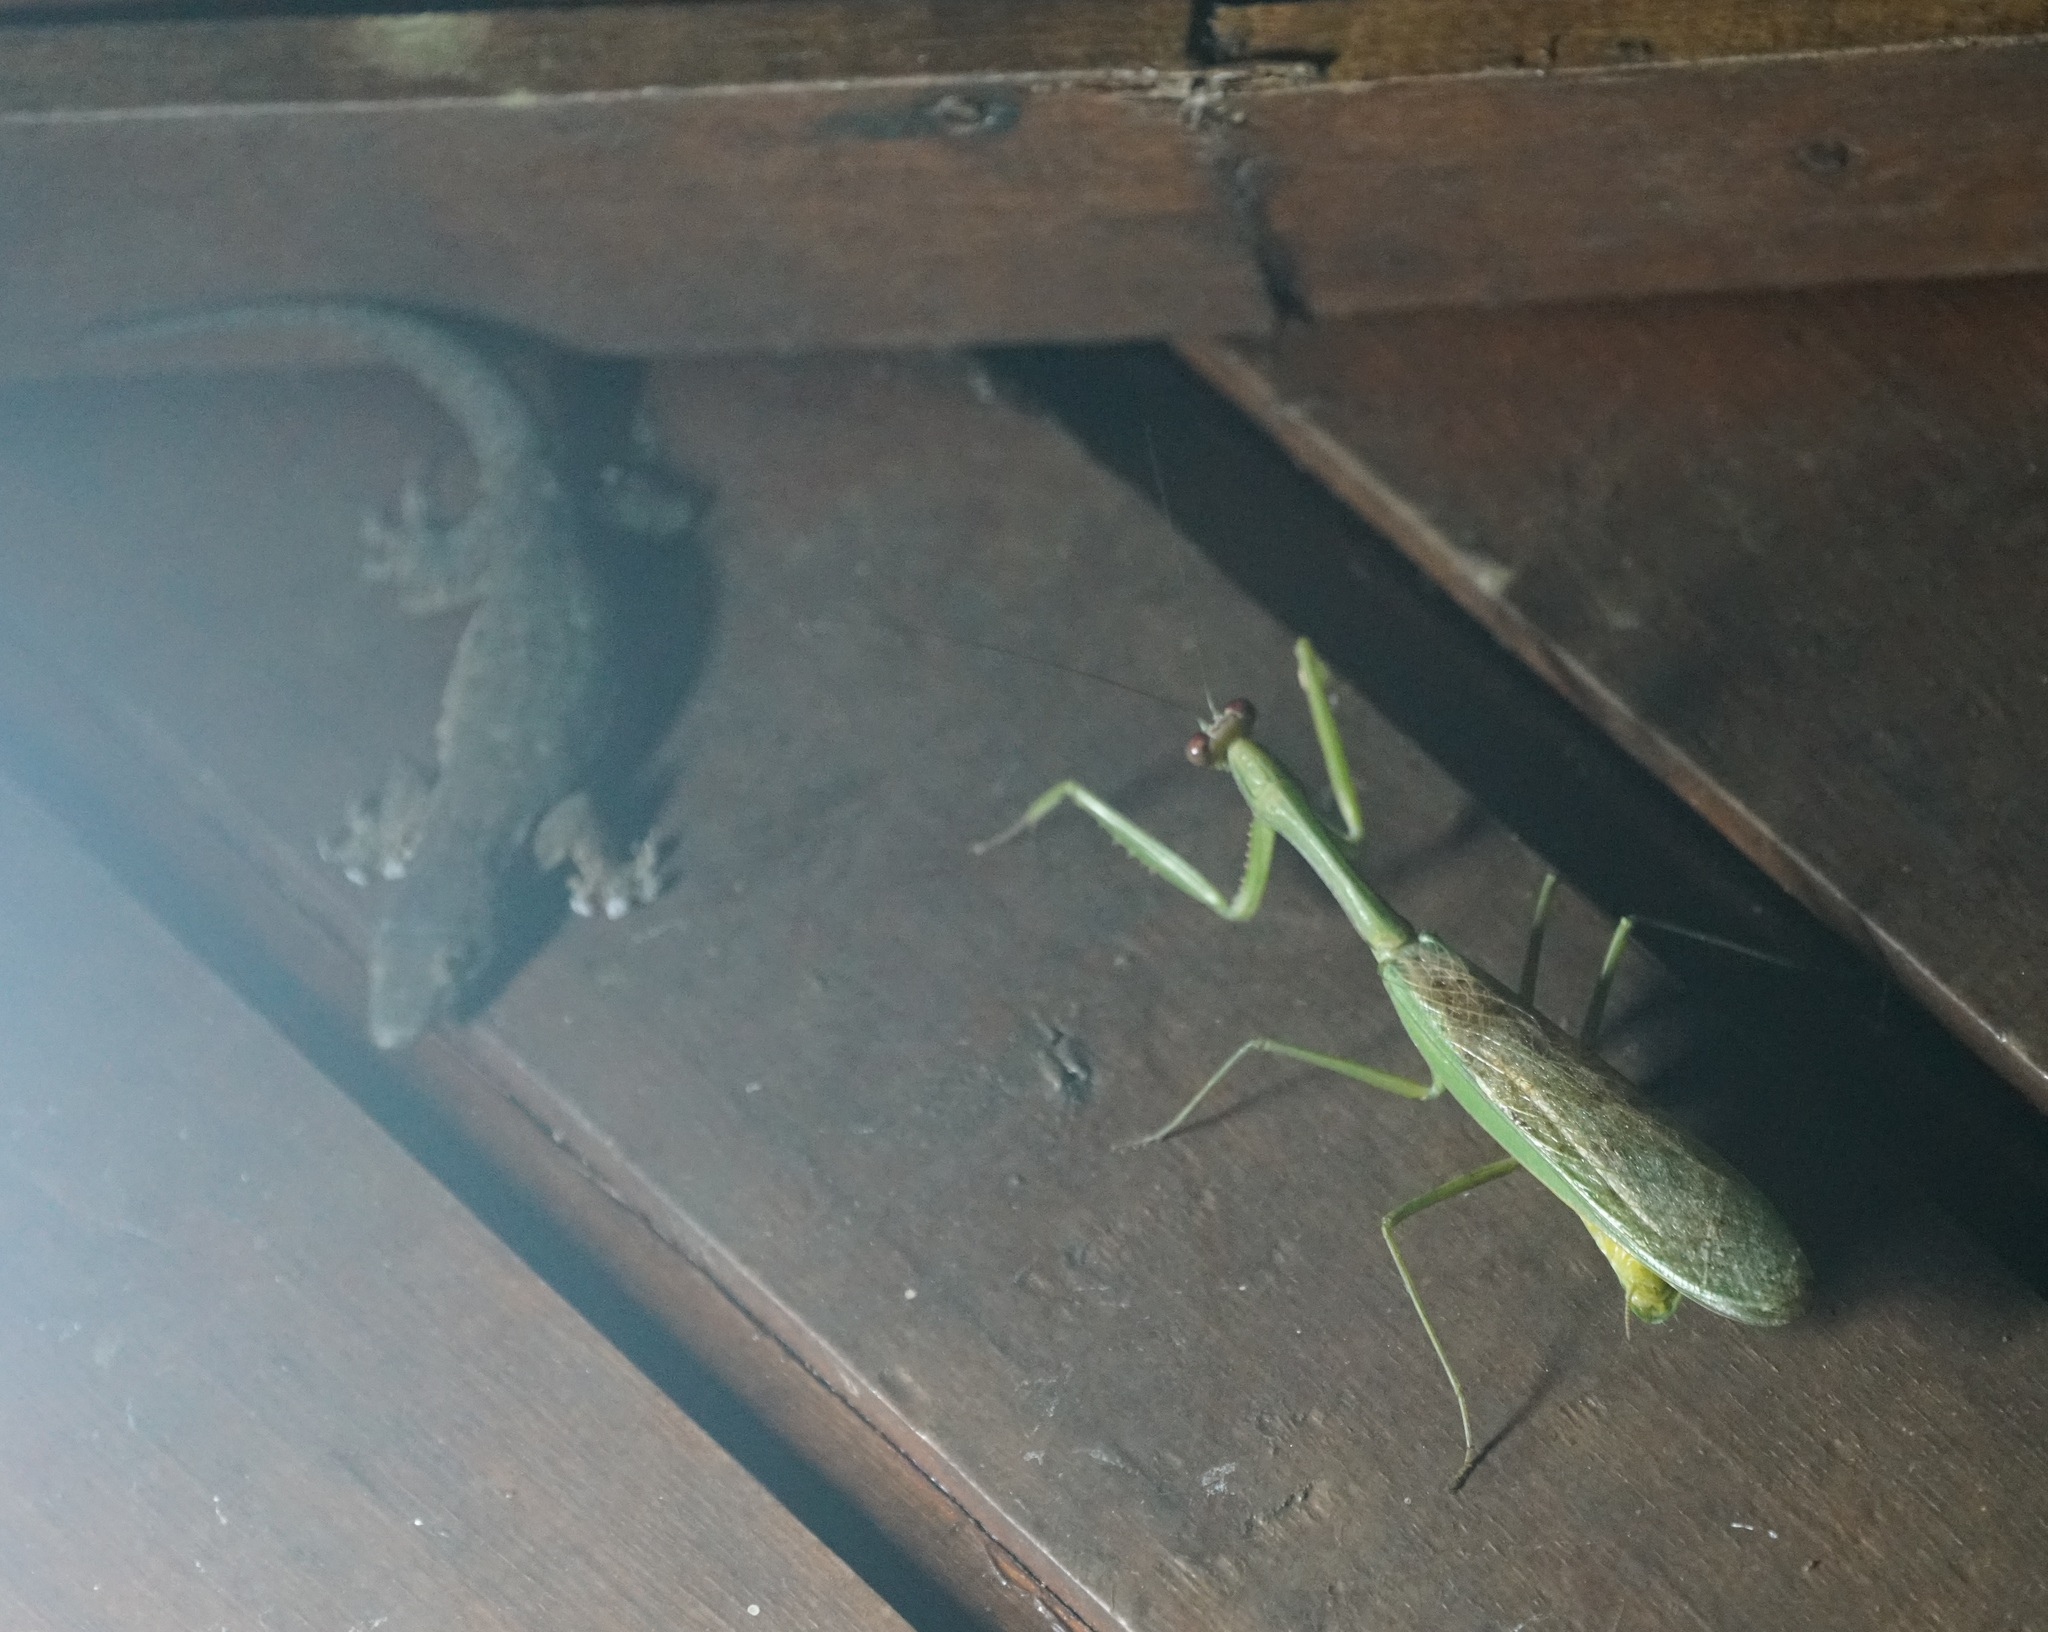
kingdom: Animalia
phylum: Arthropoda
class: Insecta
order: Mantodea
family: Mantidae
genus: Hierodula
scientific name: Hierodula dyaka
